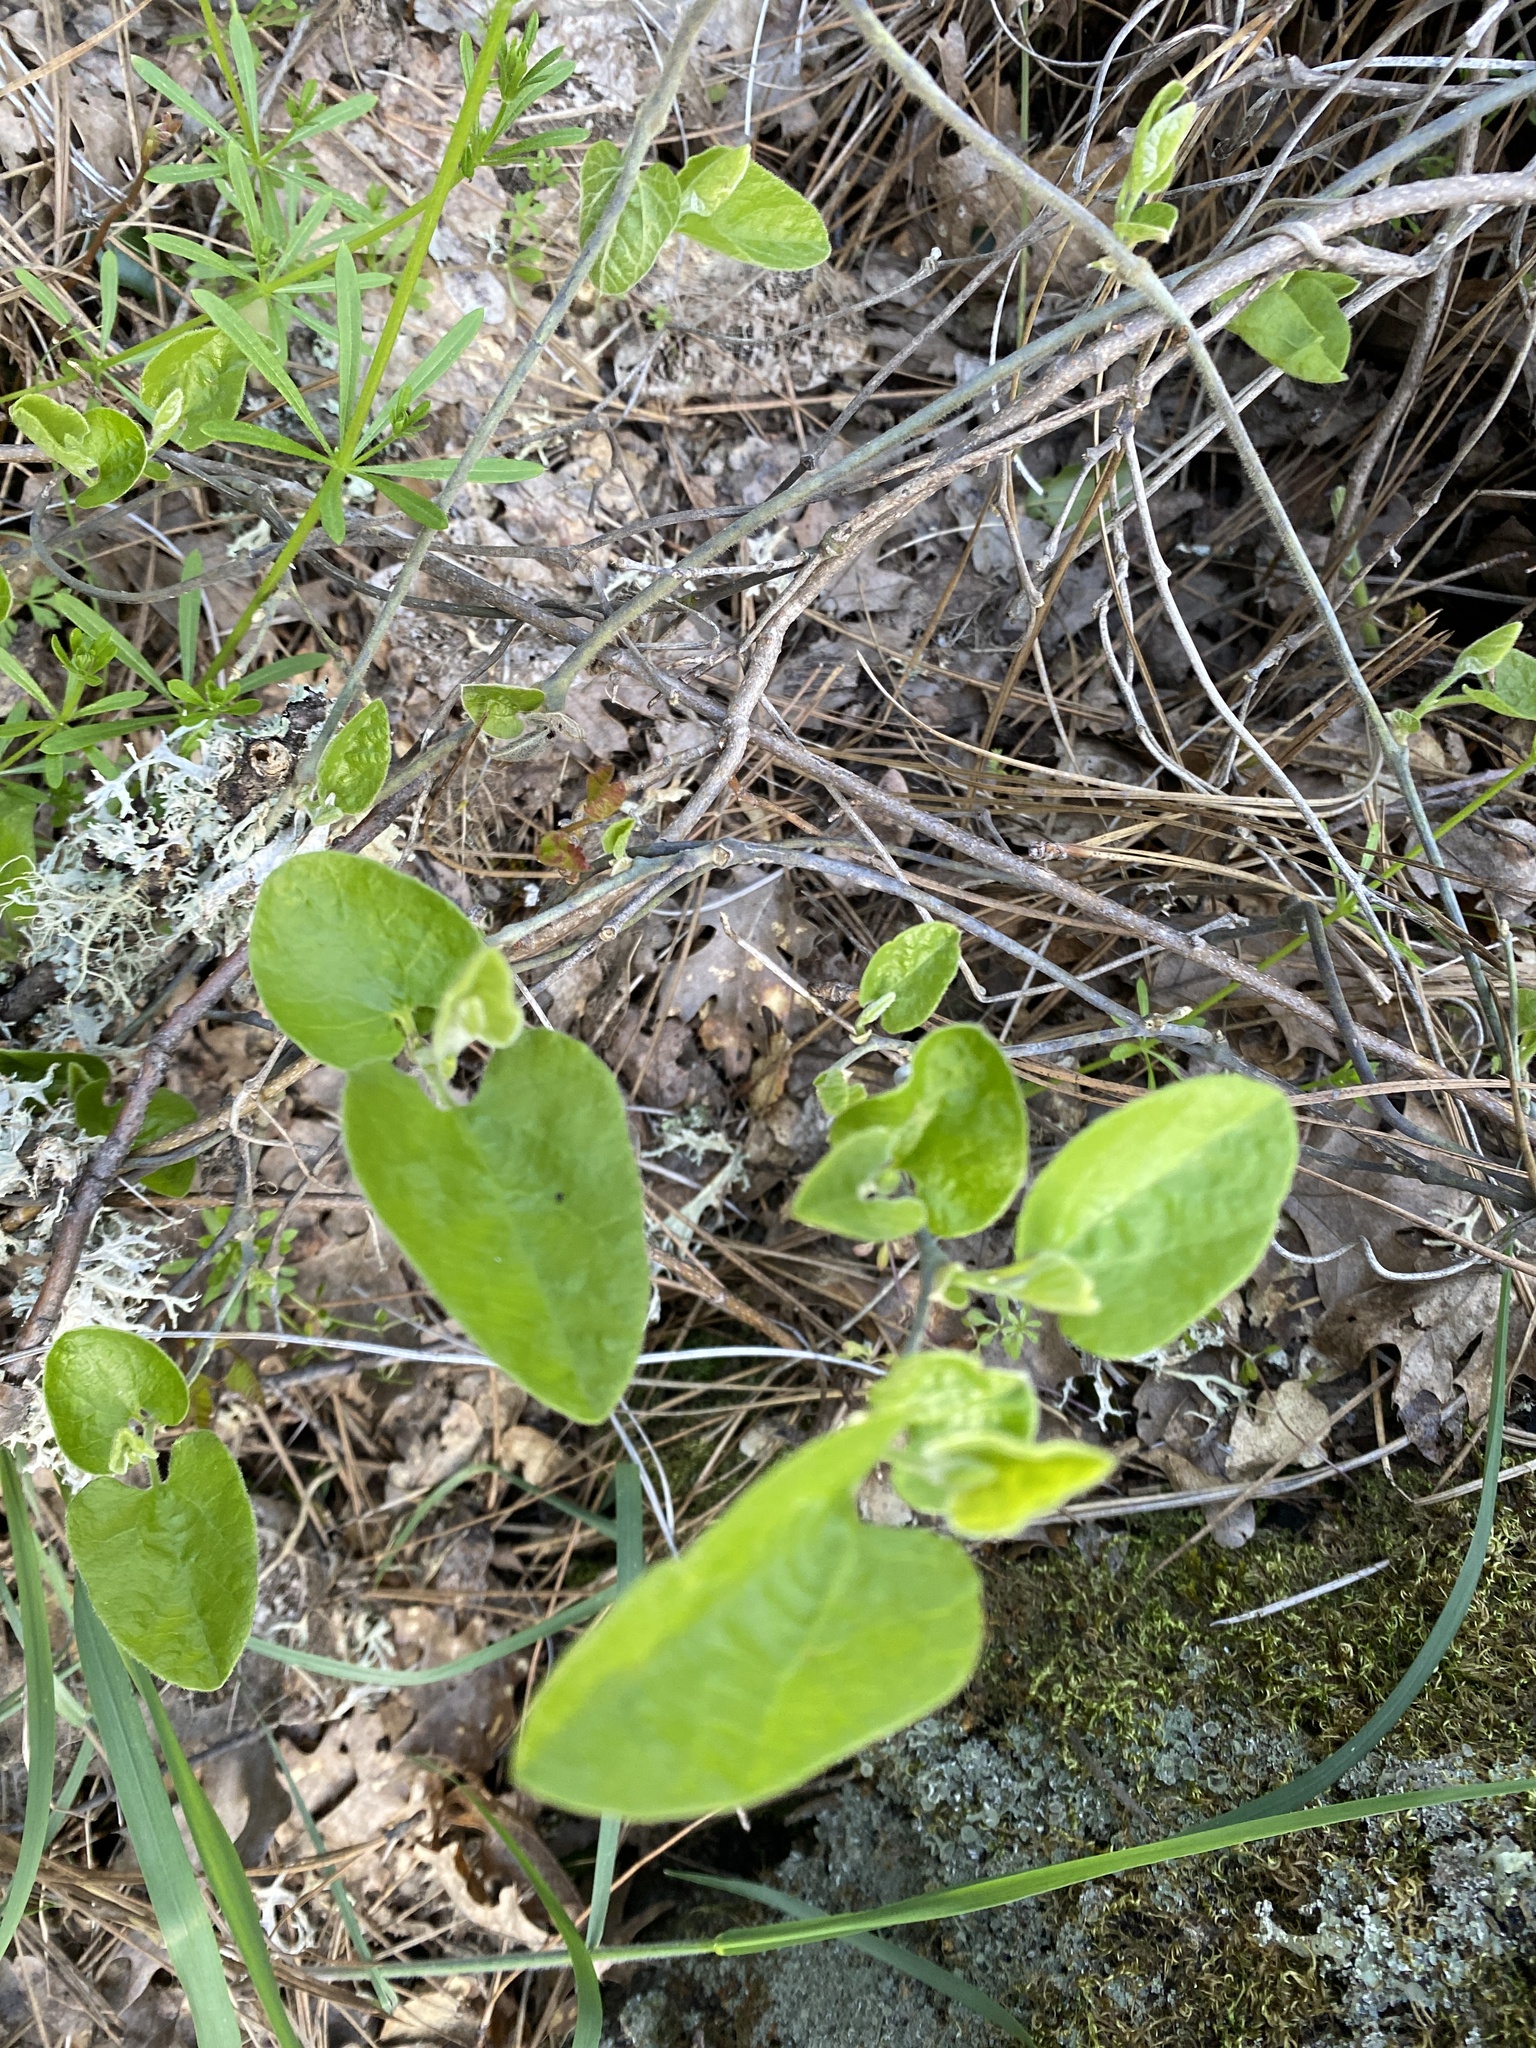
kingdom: Plantae
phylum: Tracheophyta
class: Magnoliopsida
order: Piperales
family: Aristolochiaceae
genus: Isotrema
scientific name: Isotrema californicum
